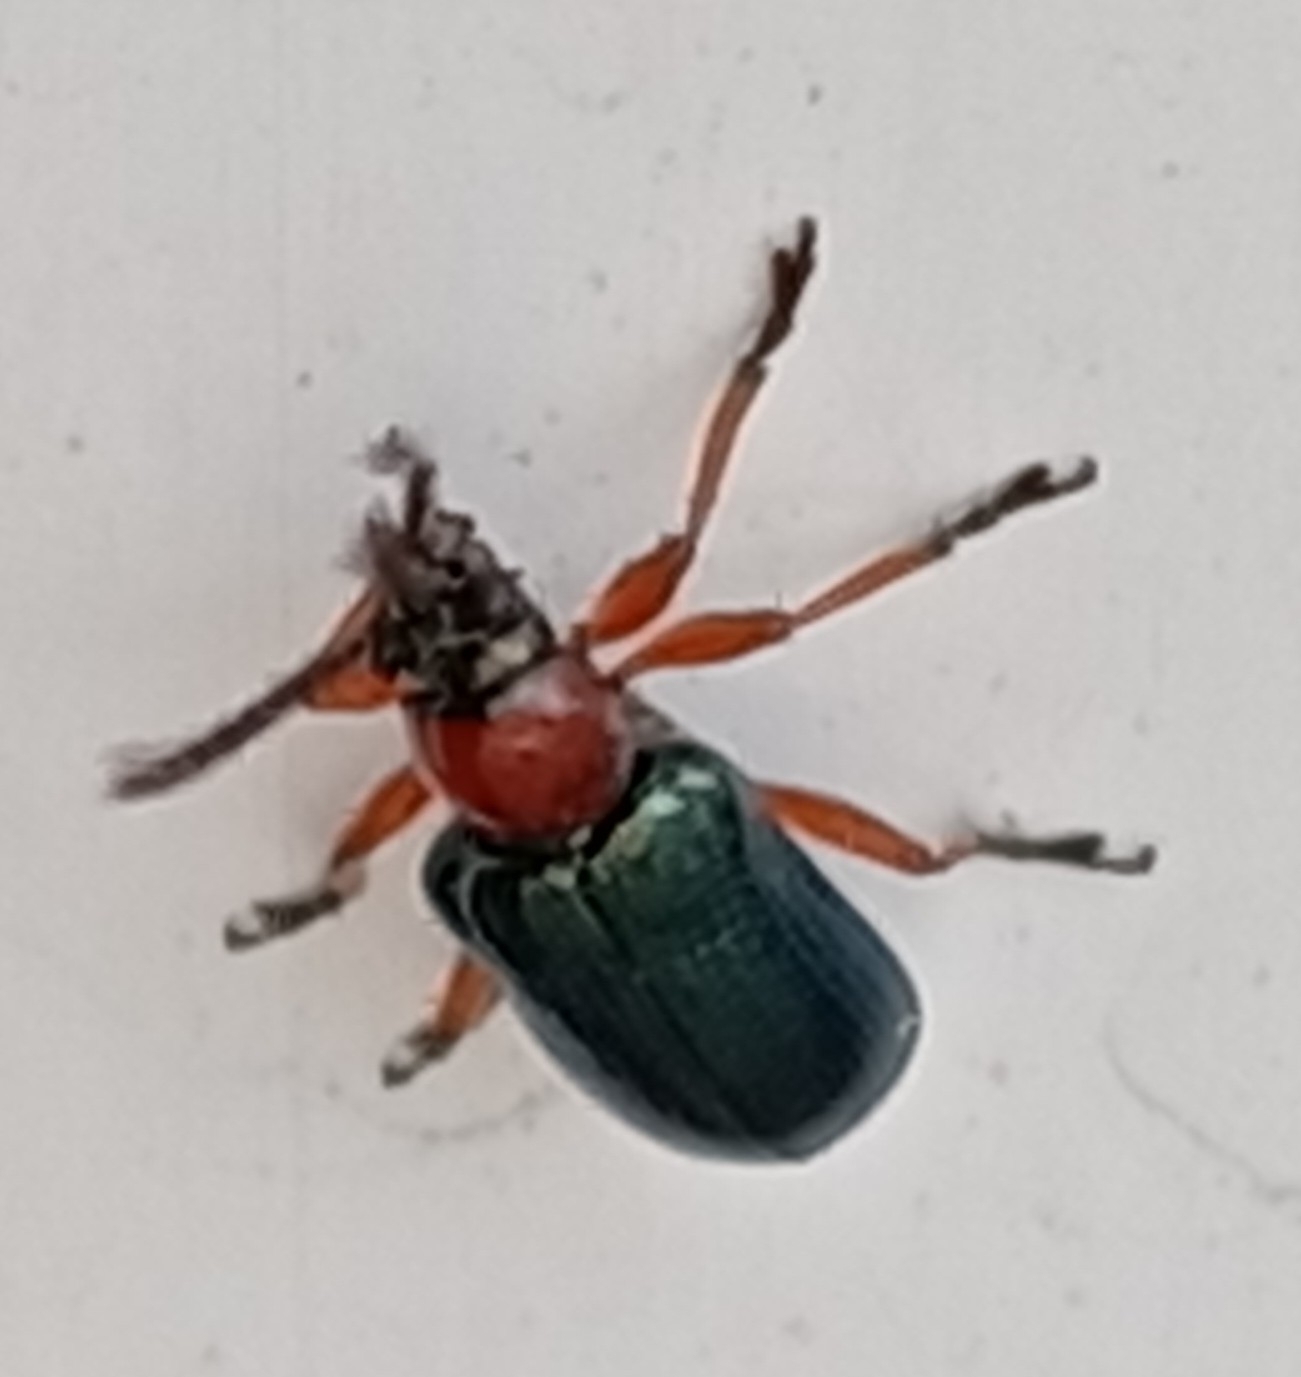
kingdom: Animalia
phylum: Arthropoda
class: Insecta
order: Coleoptera
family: Chrysomelidae
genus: Oulema
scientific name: Oulema
